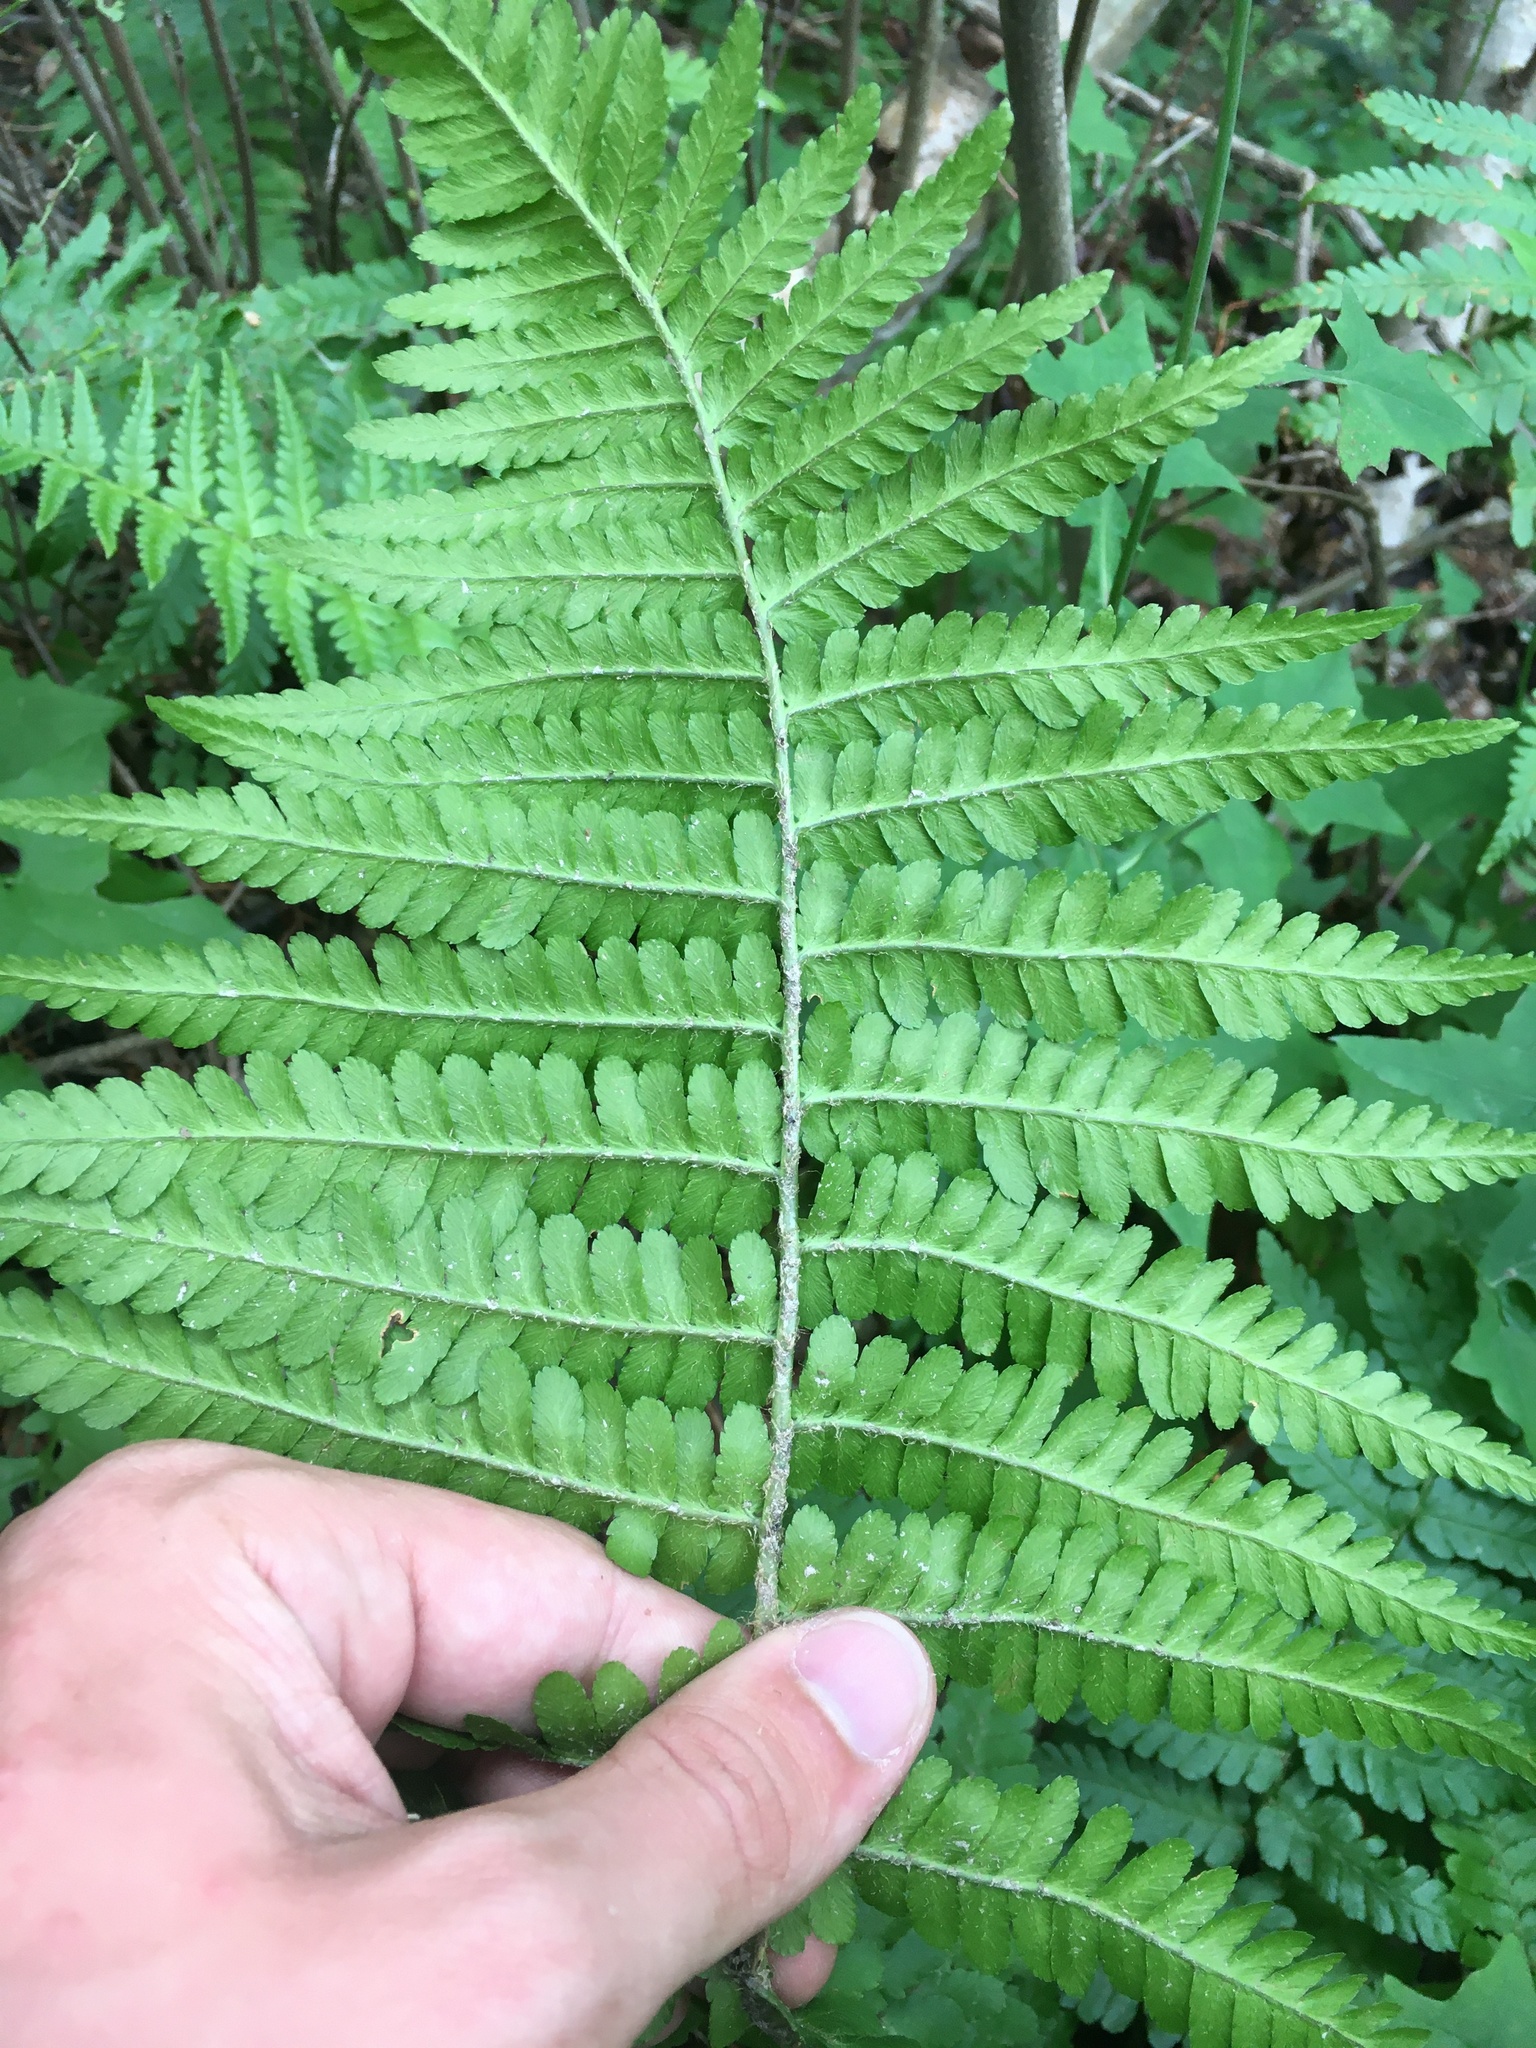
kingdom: Plantae
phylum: Tracheophyta
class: Polypodiopsida
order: Polypodiales
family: Dryopteridaceae
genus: Dryopteris
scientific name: Dryopteris filix-mas
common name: Male fern
